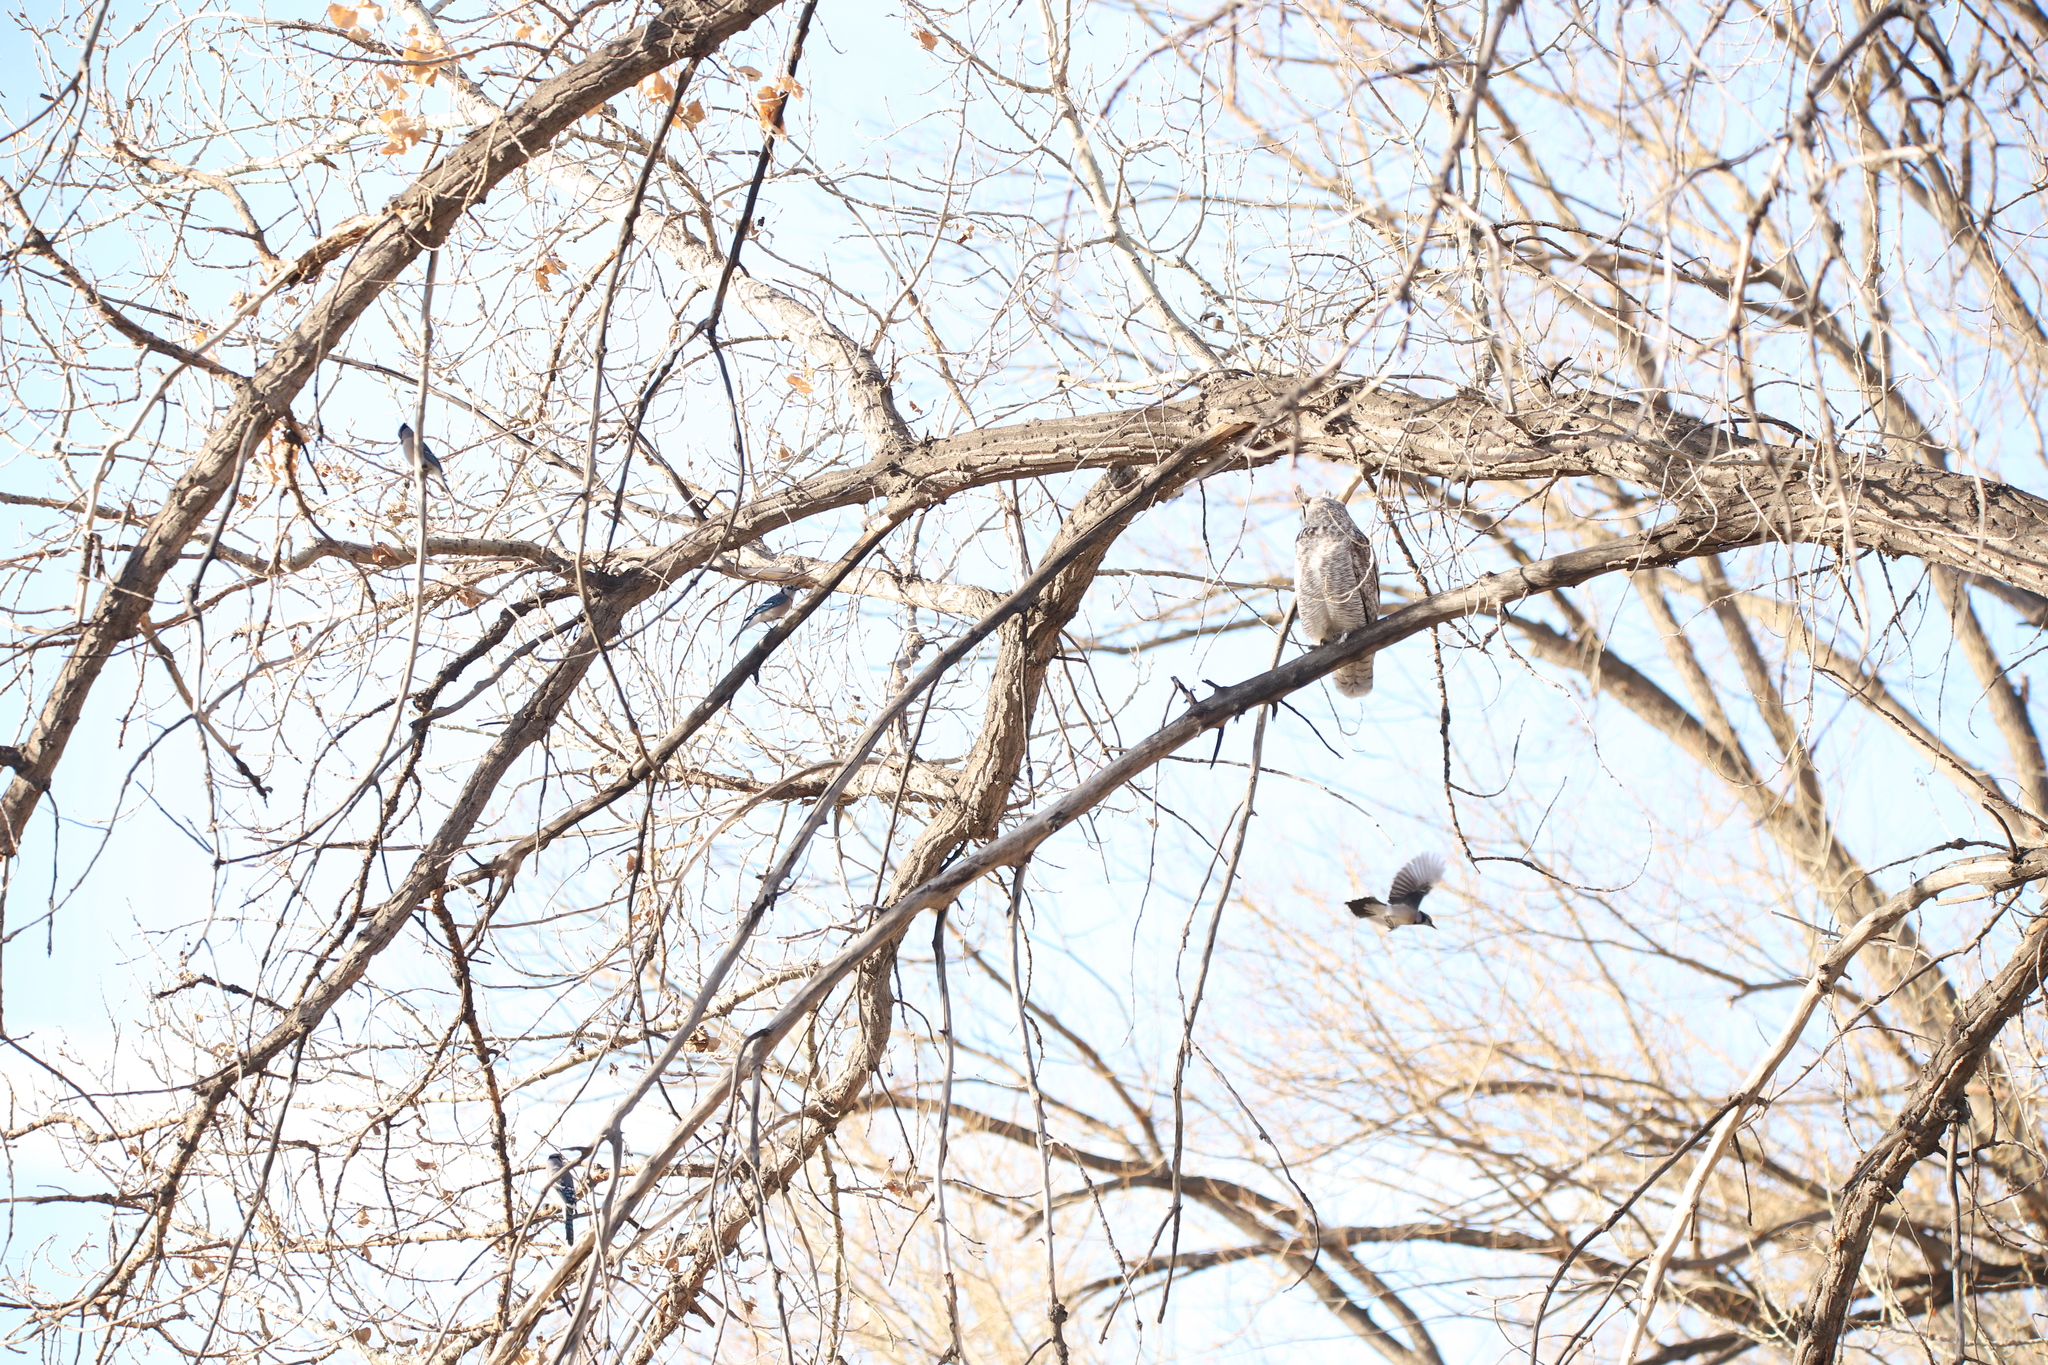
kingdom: Animalia
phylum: Chordata
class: Aves
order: Passeriformes
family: Corvidae
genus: Cyanocitta
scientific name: Cyanocitta cristata
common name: Blue jay
